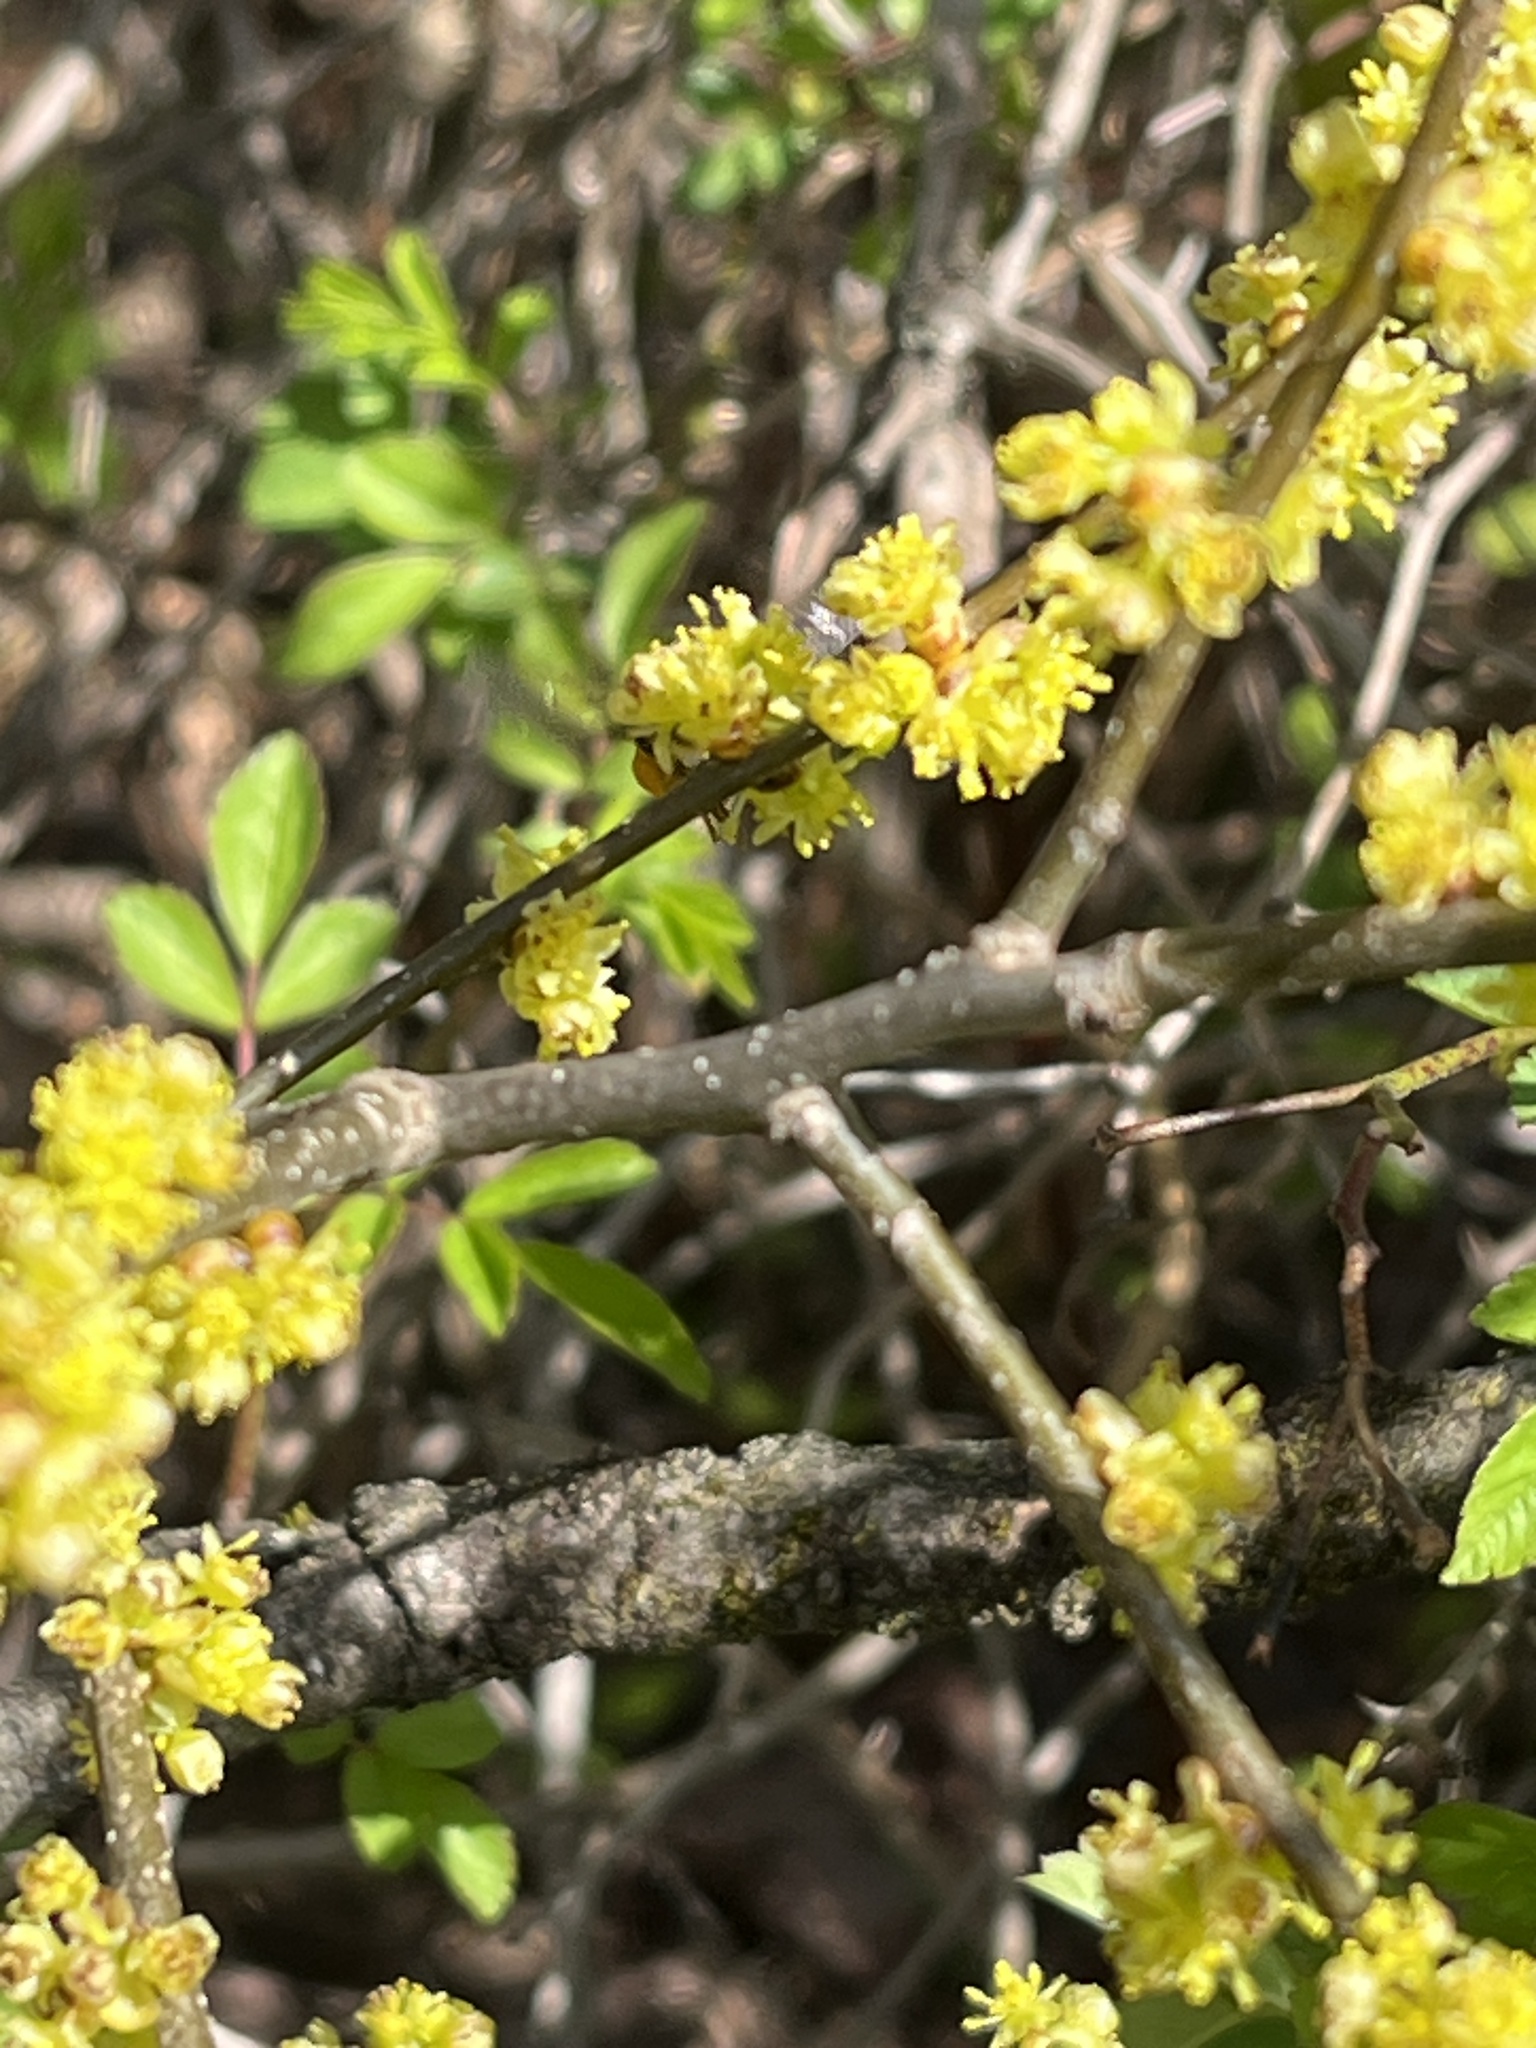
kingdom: Plantae
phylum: Tracheophyta
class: Magnoliopsida
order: Laurales
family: Lauraceae
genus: Lindera
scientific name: Lindera benzoin
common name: Spicebush
